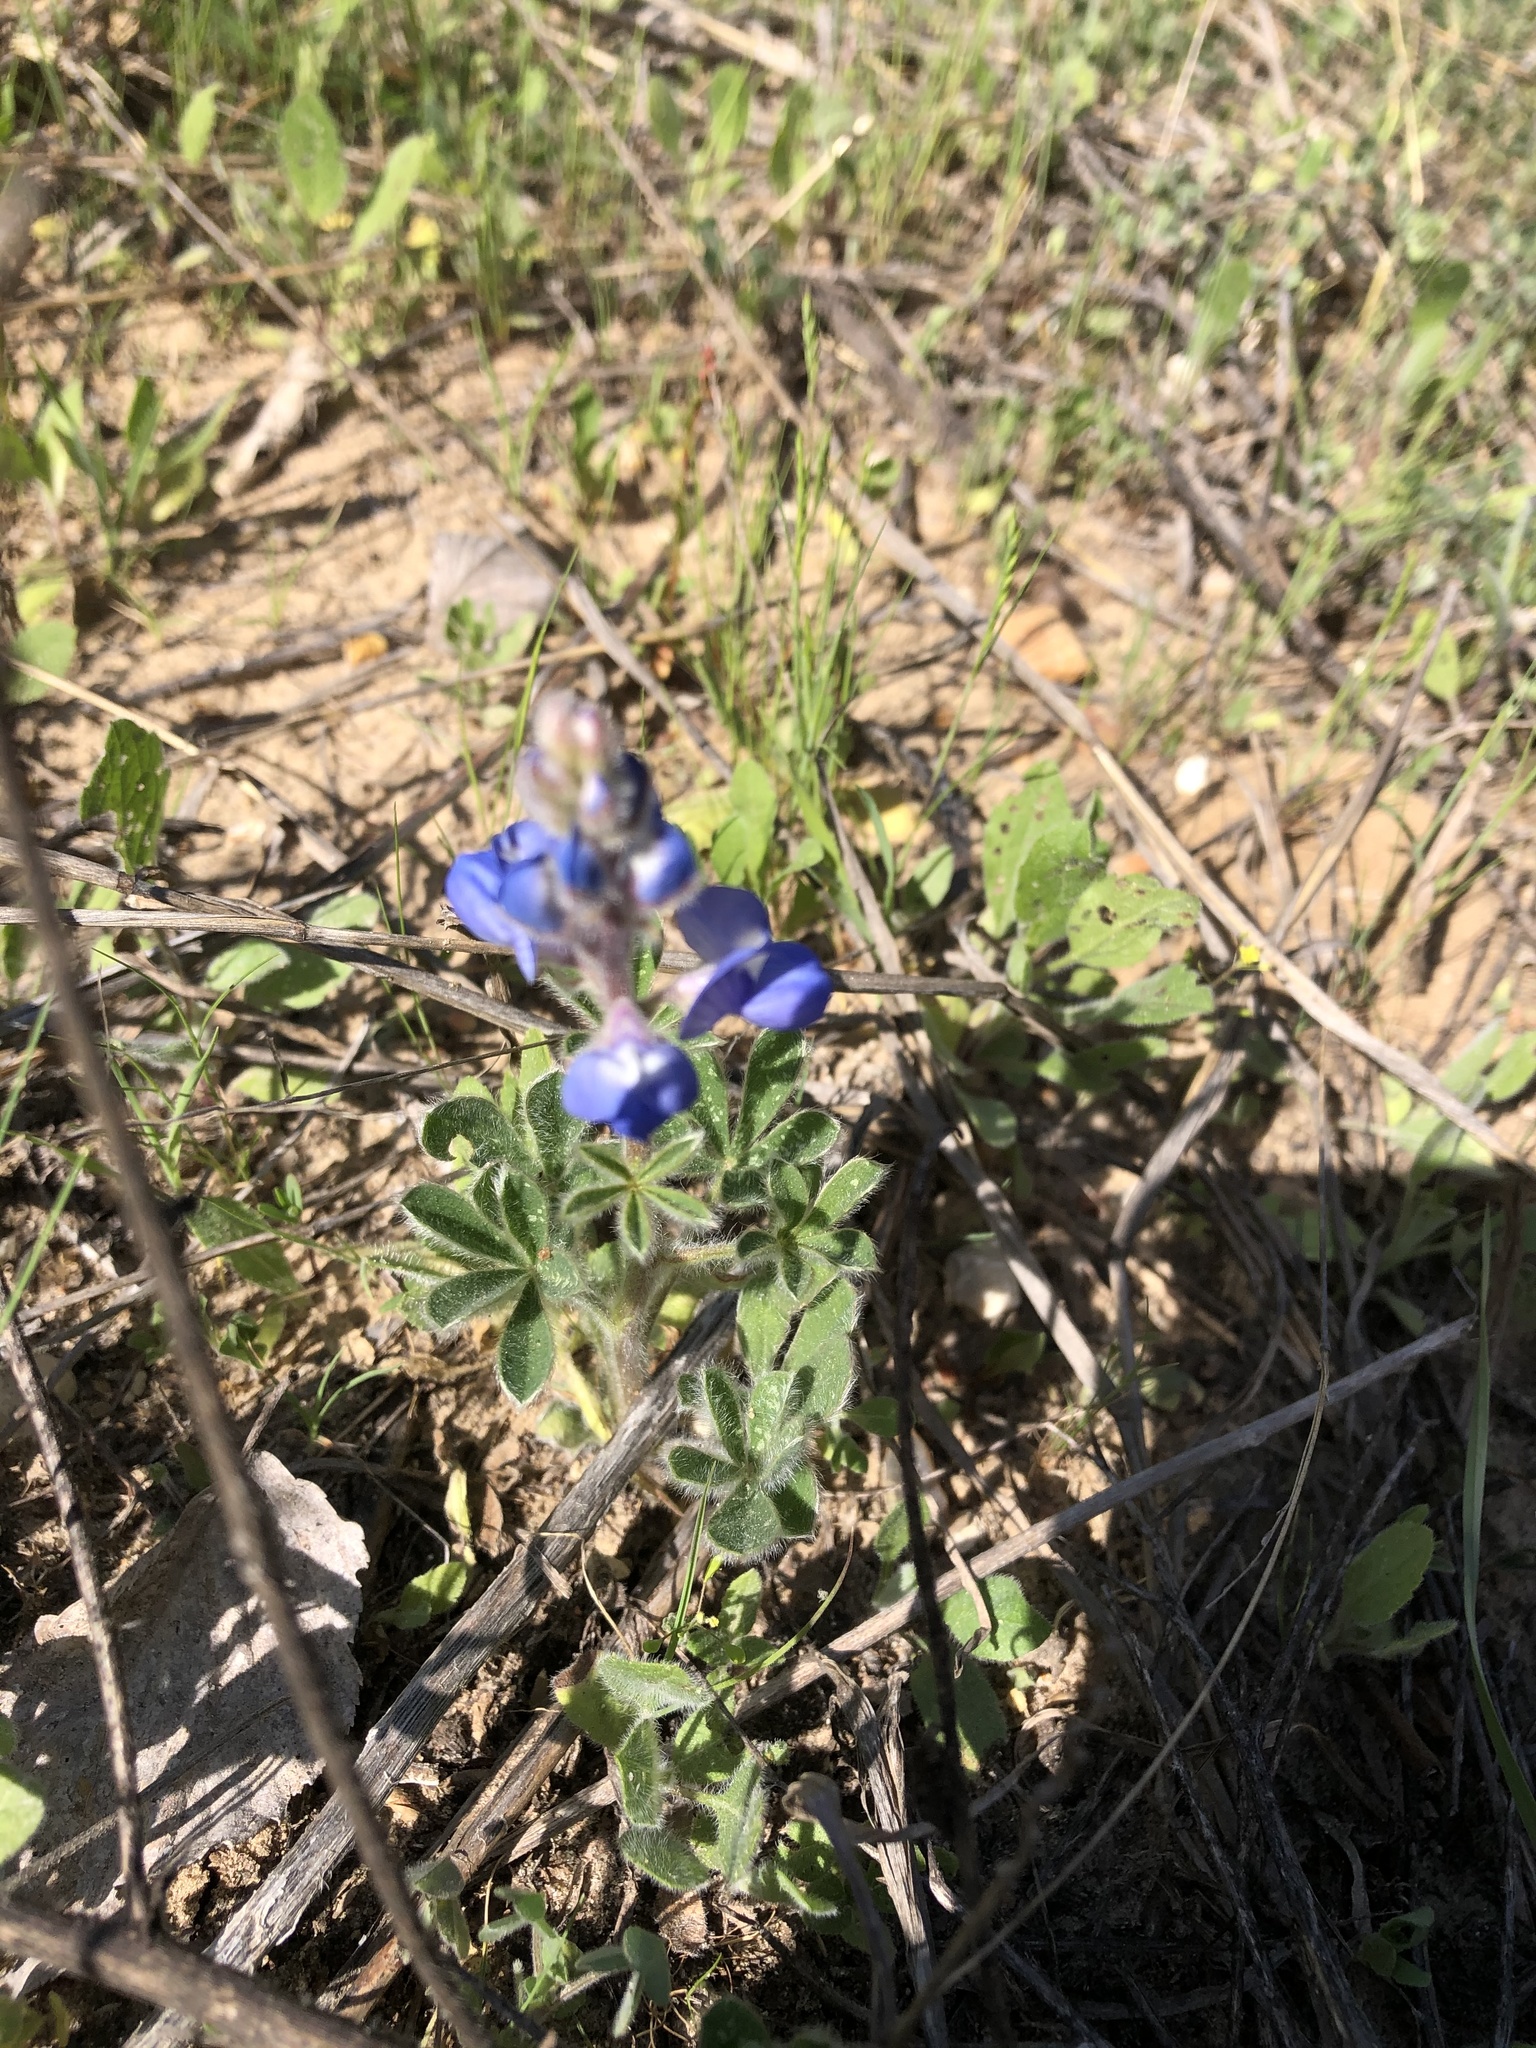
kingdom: Plantae
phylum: Tracheophyta
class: Magnoliopsida
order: Fabales
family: Fabaceae
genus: Lupinus
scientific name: Lupinus subcarnosus
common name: Texas bluebonnet
